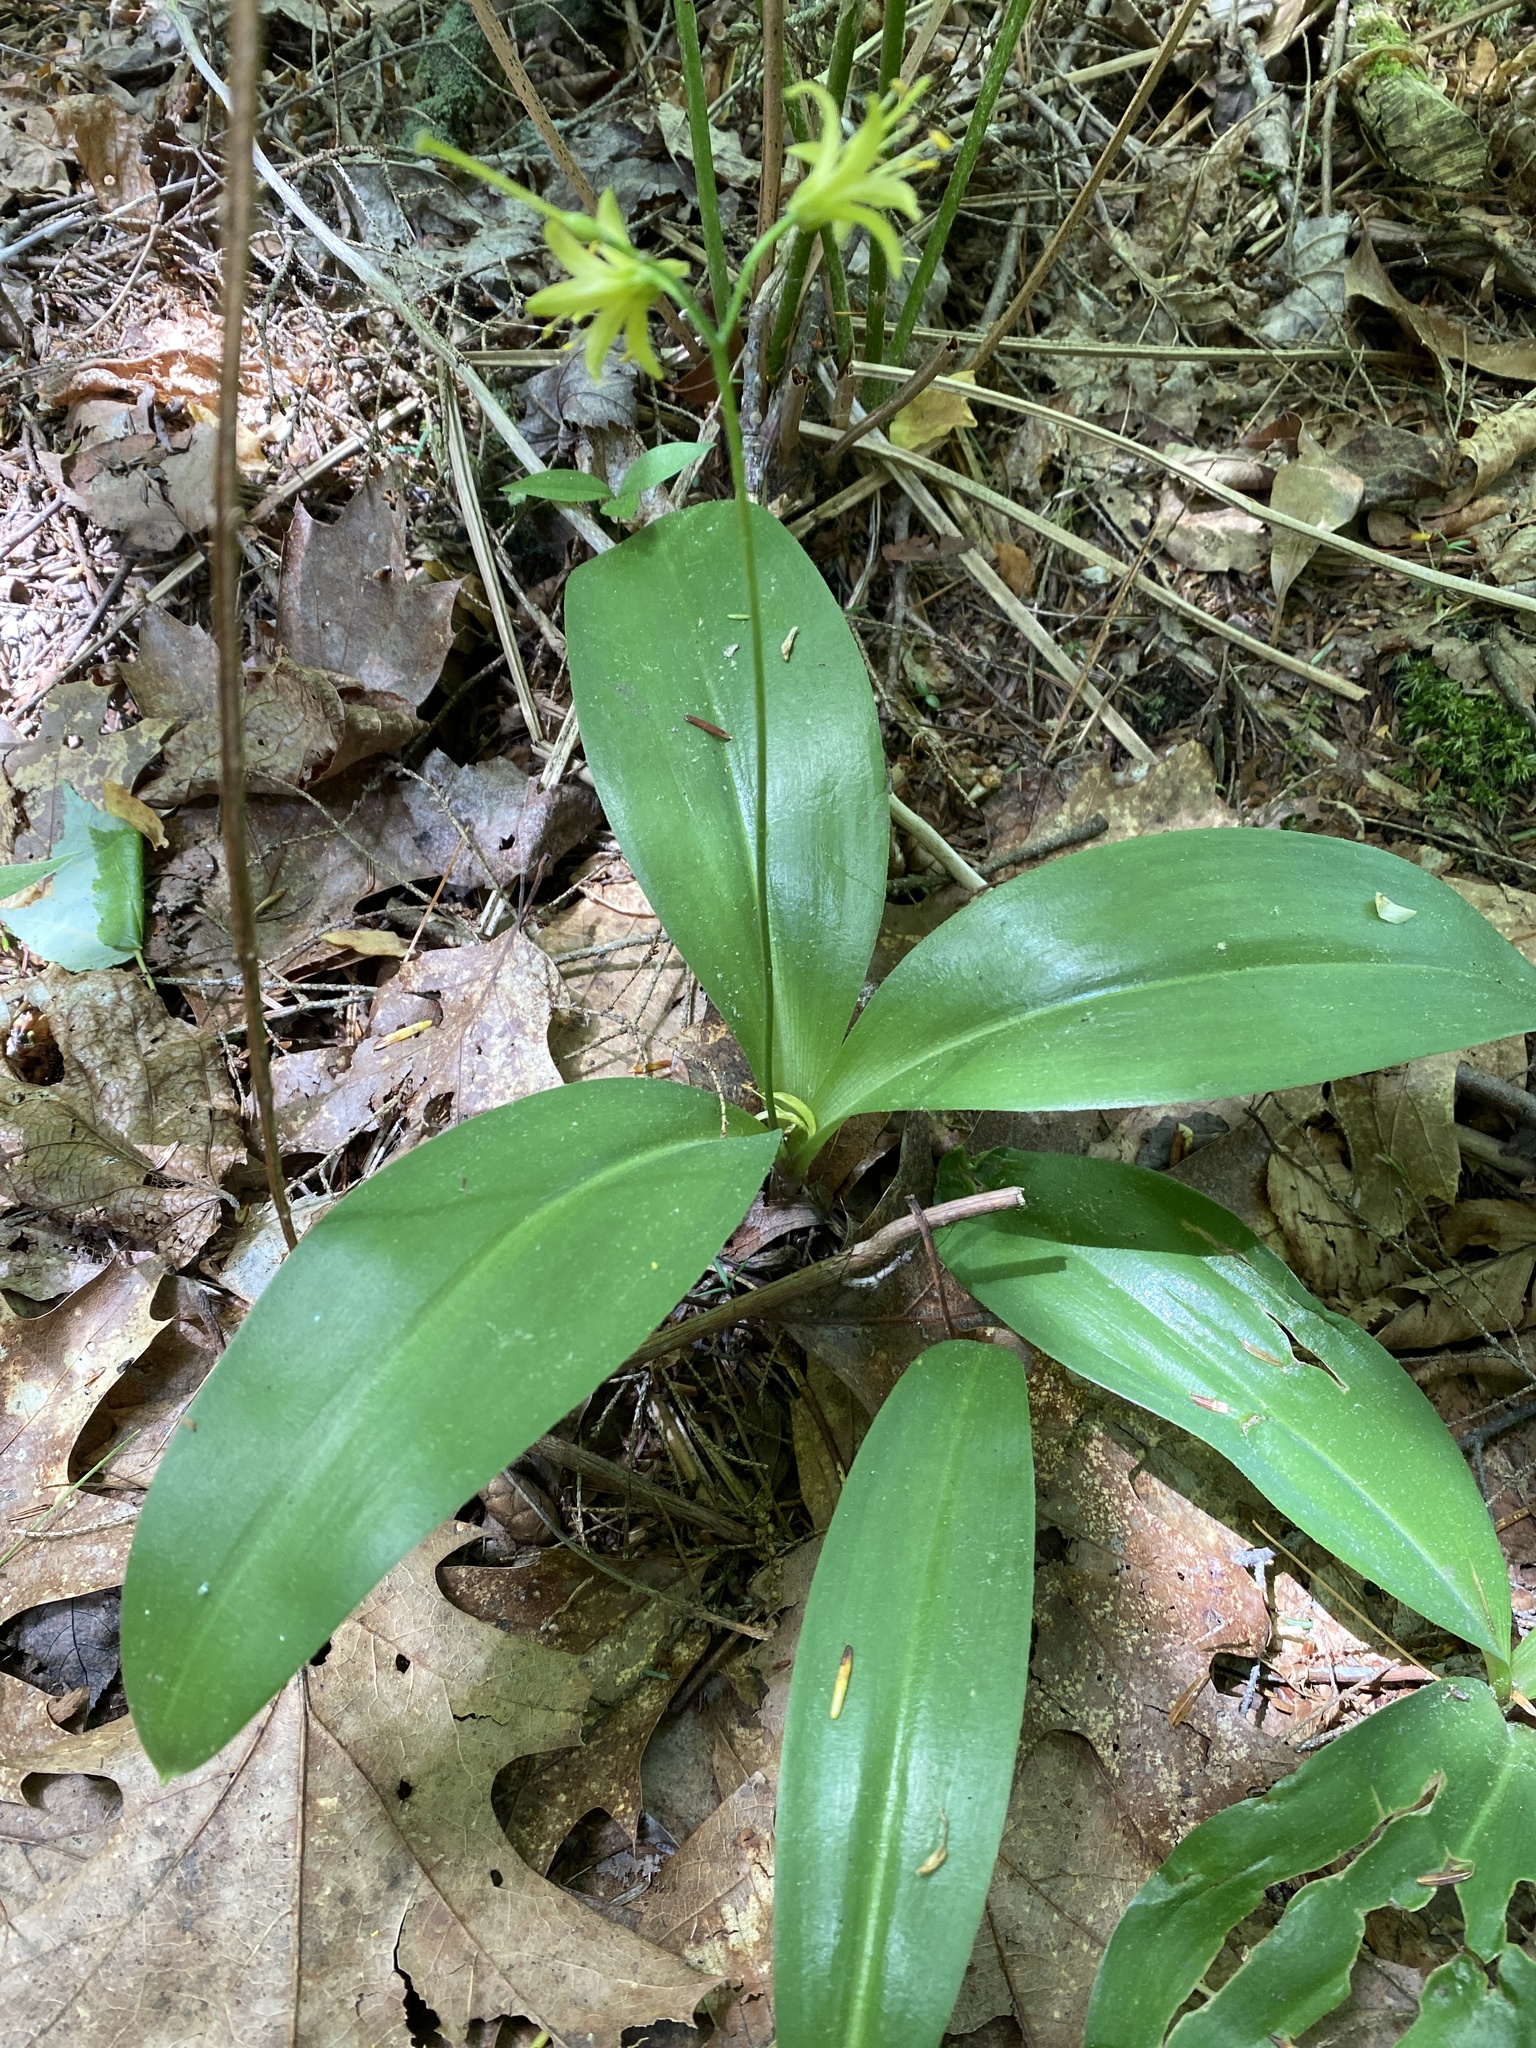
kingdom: Plantae
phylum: Tracheophyta
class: Liliopsida
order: Liliales
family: Liliaceae
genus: Clintonia
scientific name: Clintonia borealis
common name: Yellow clintonia
